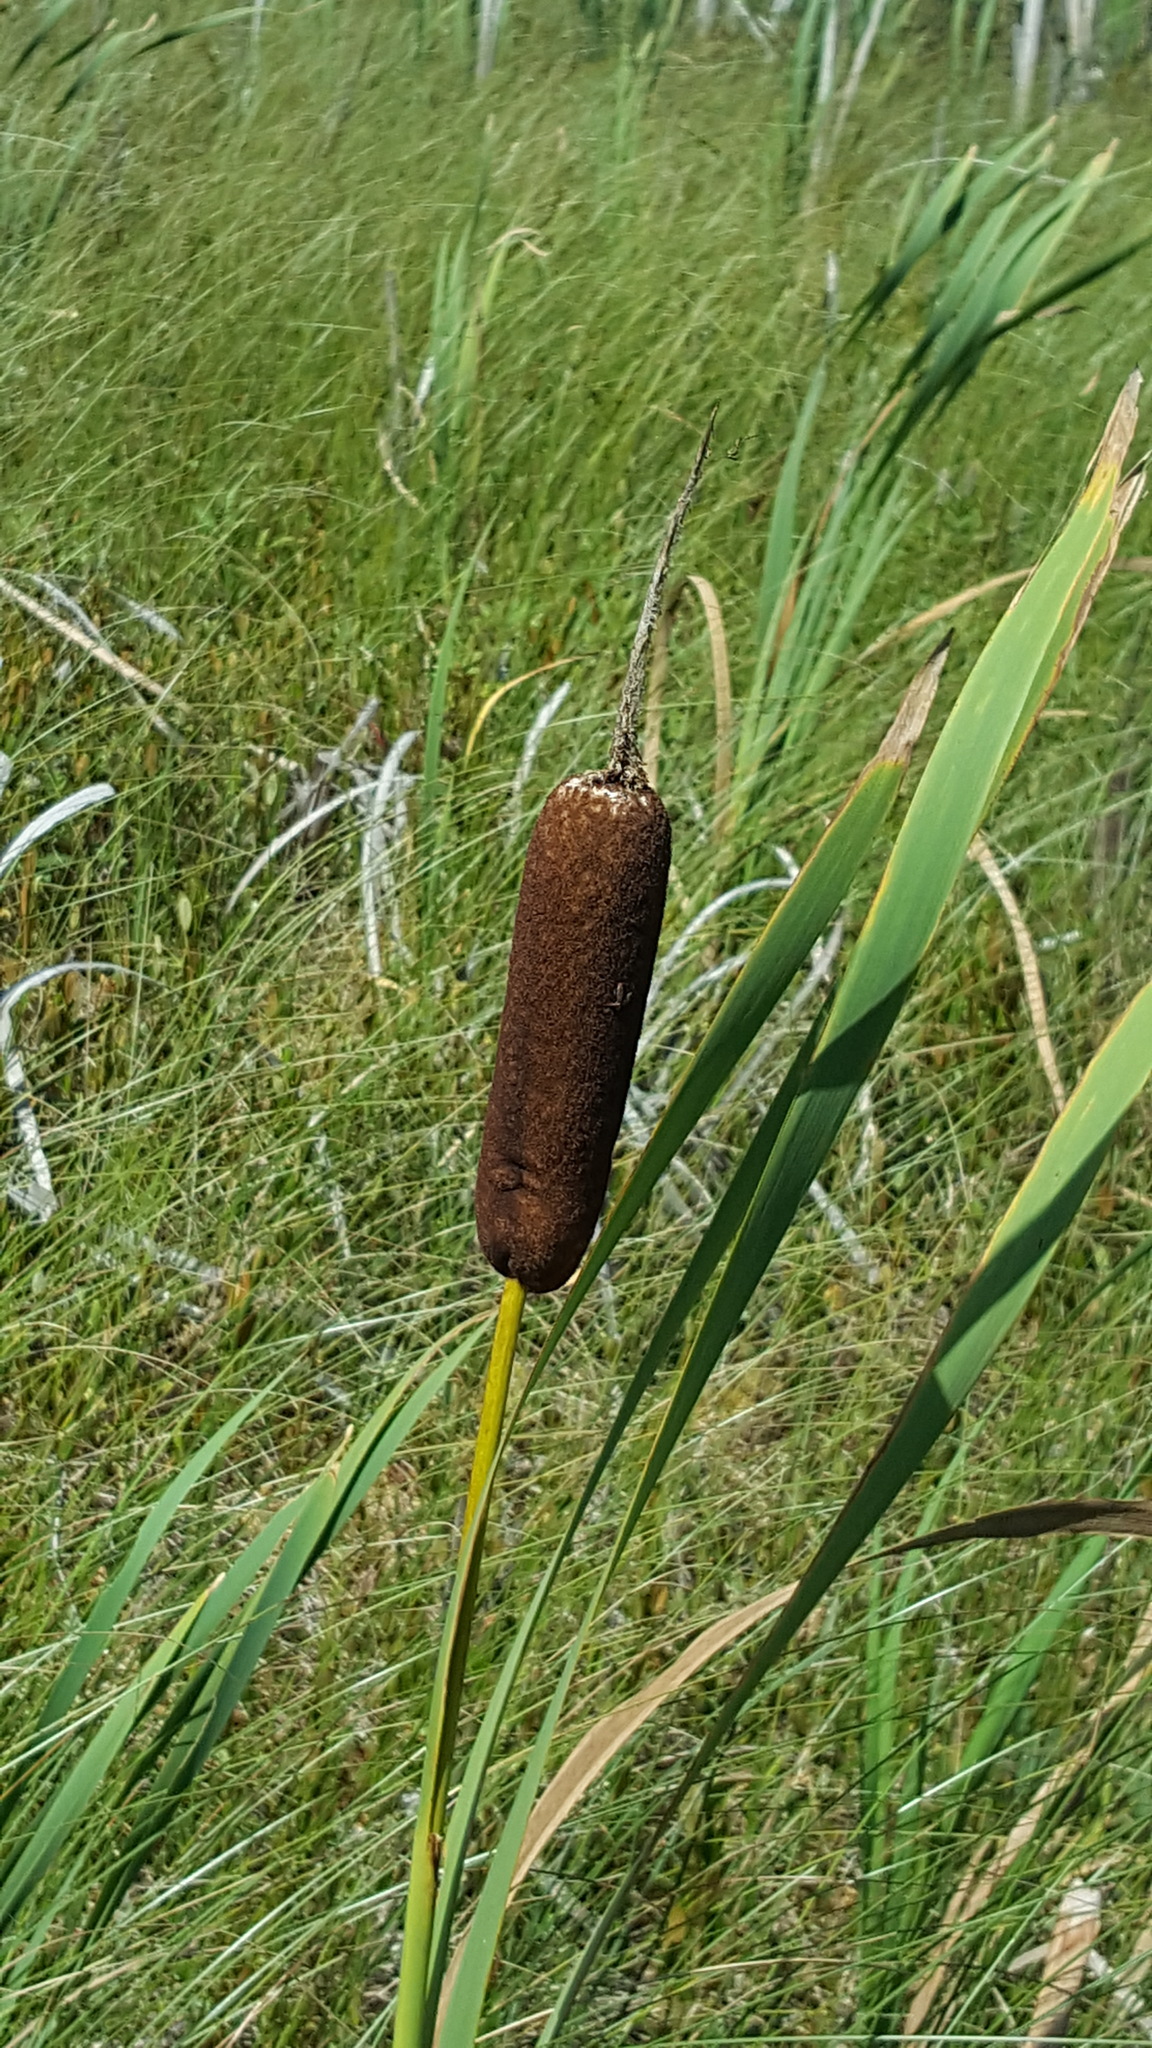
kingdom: Plantae
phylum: Tracheophyta
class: Liliopsida
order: Poales
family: Typhaceae
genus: Typha
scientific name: Typha latifolia
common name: Broadleaf cattail
